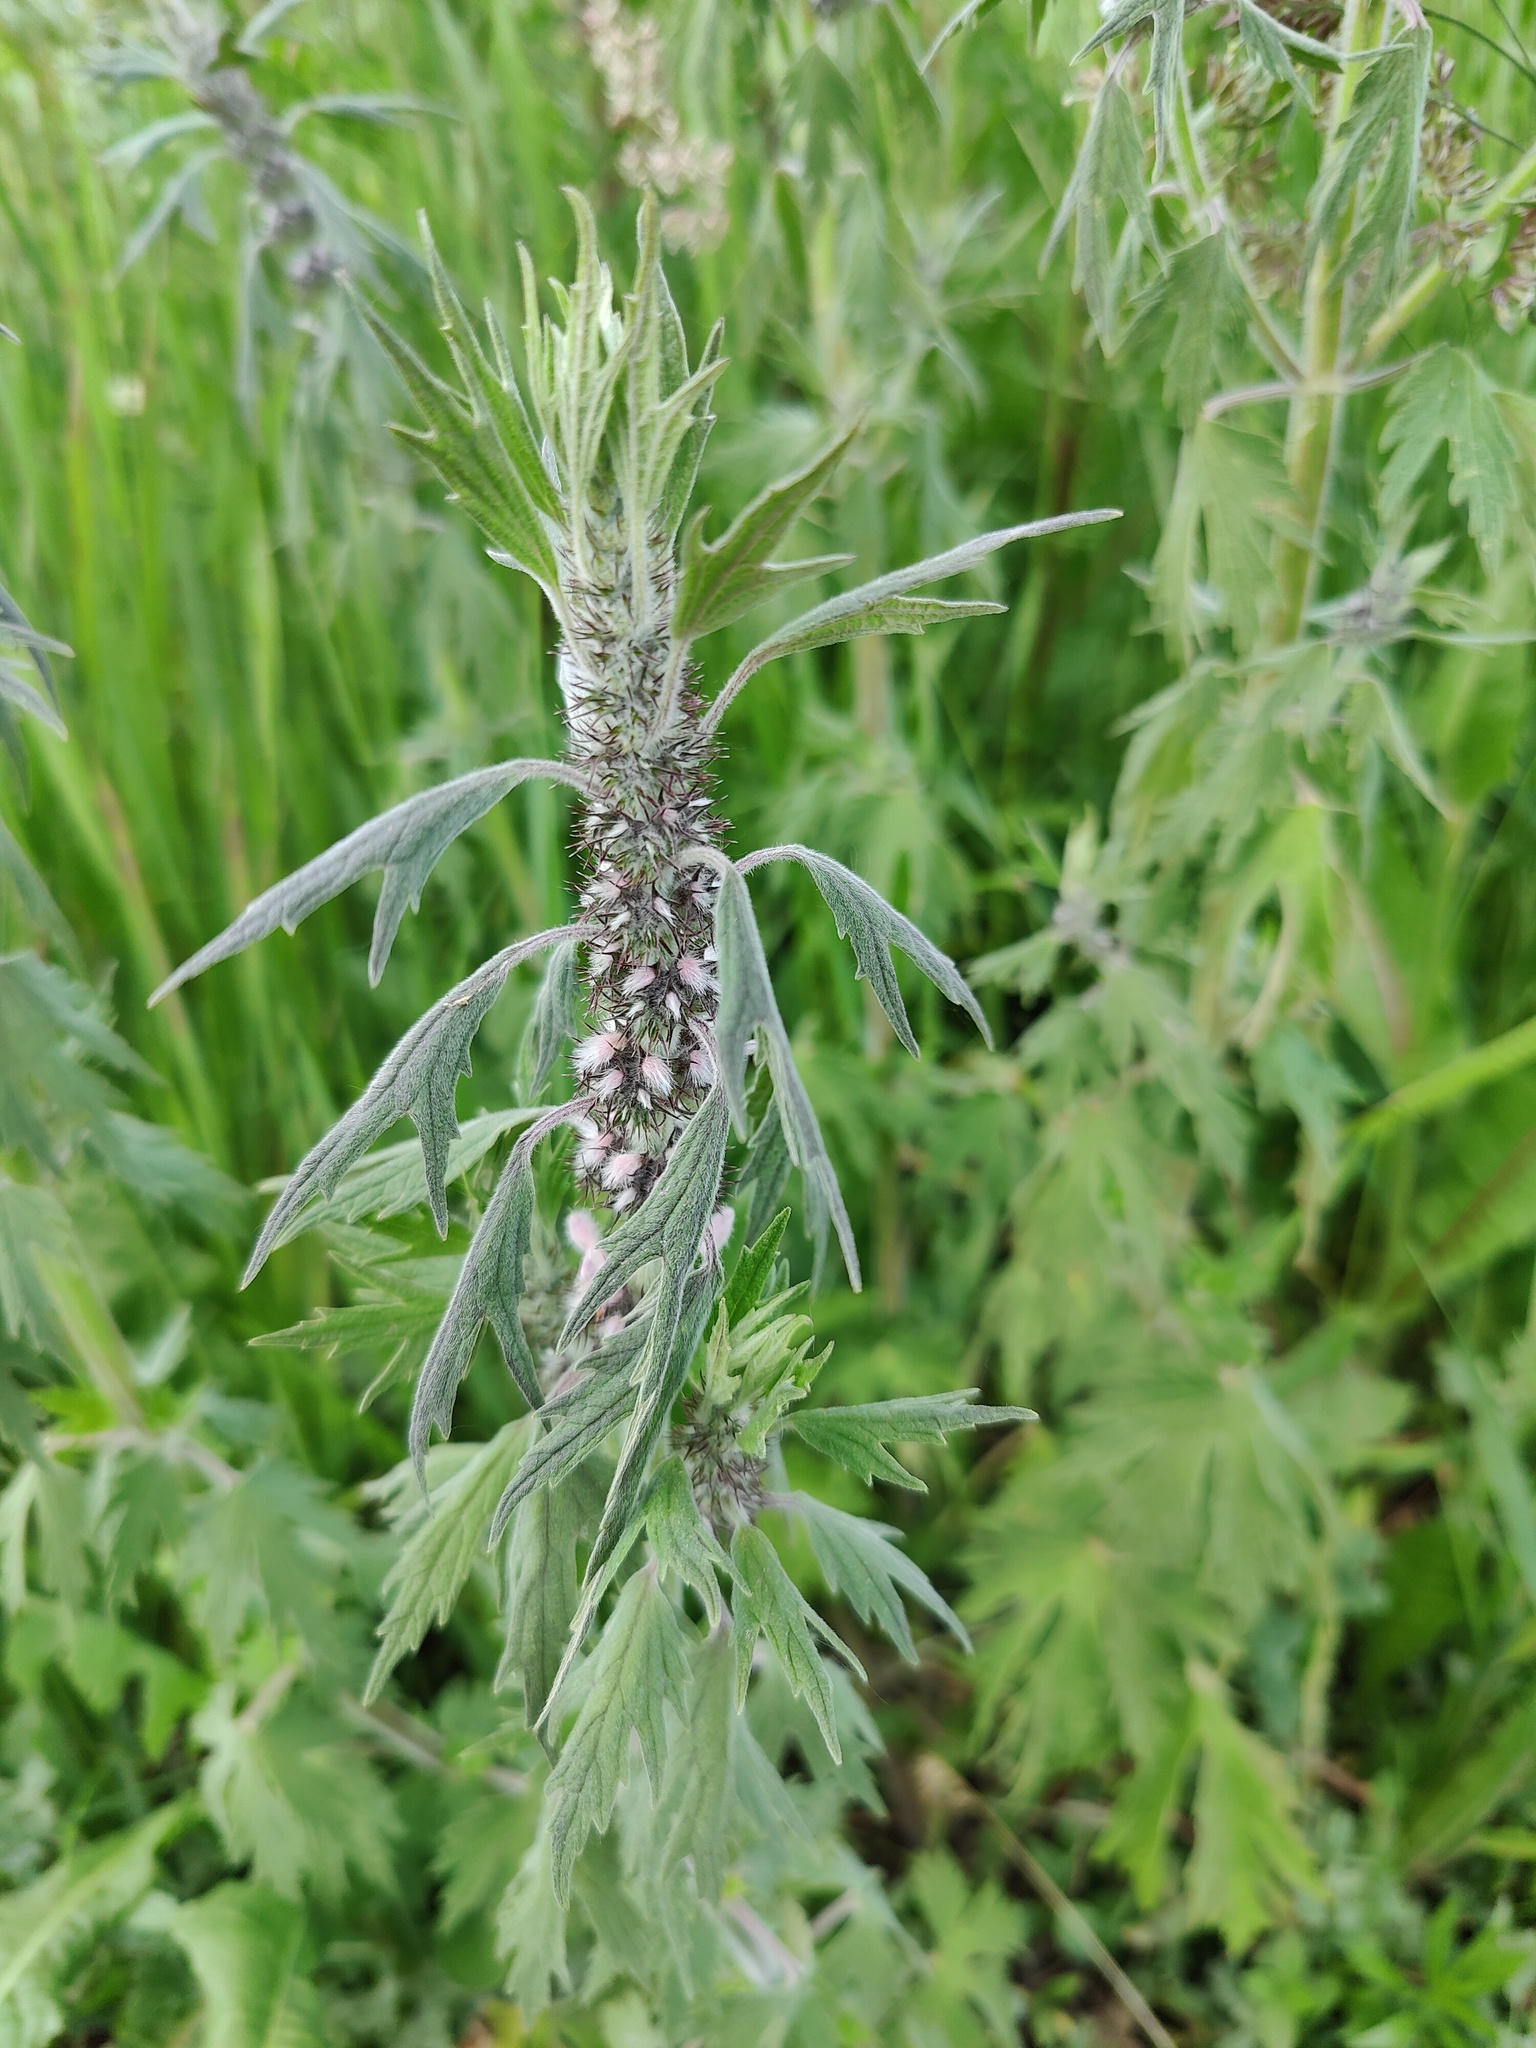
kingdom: Plantae
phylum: Tracheophyta
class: Magnoliopsida
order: Lamiales
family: Lamiaceae
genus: Leonurus
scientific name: Leonurus quinquelobatus
